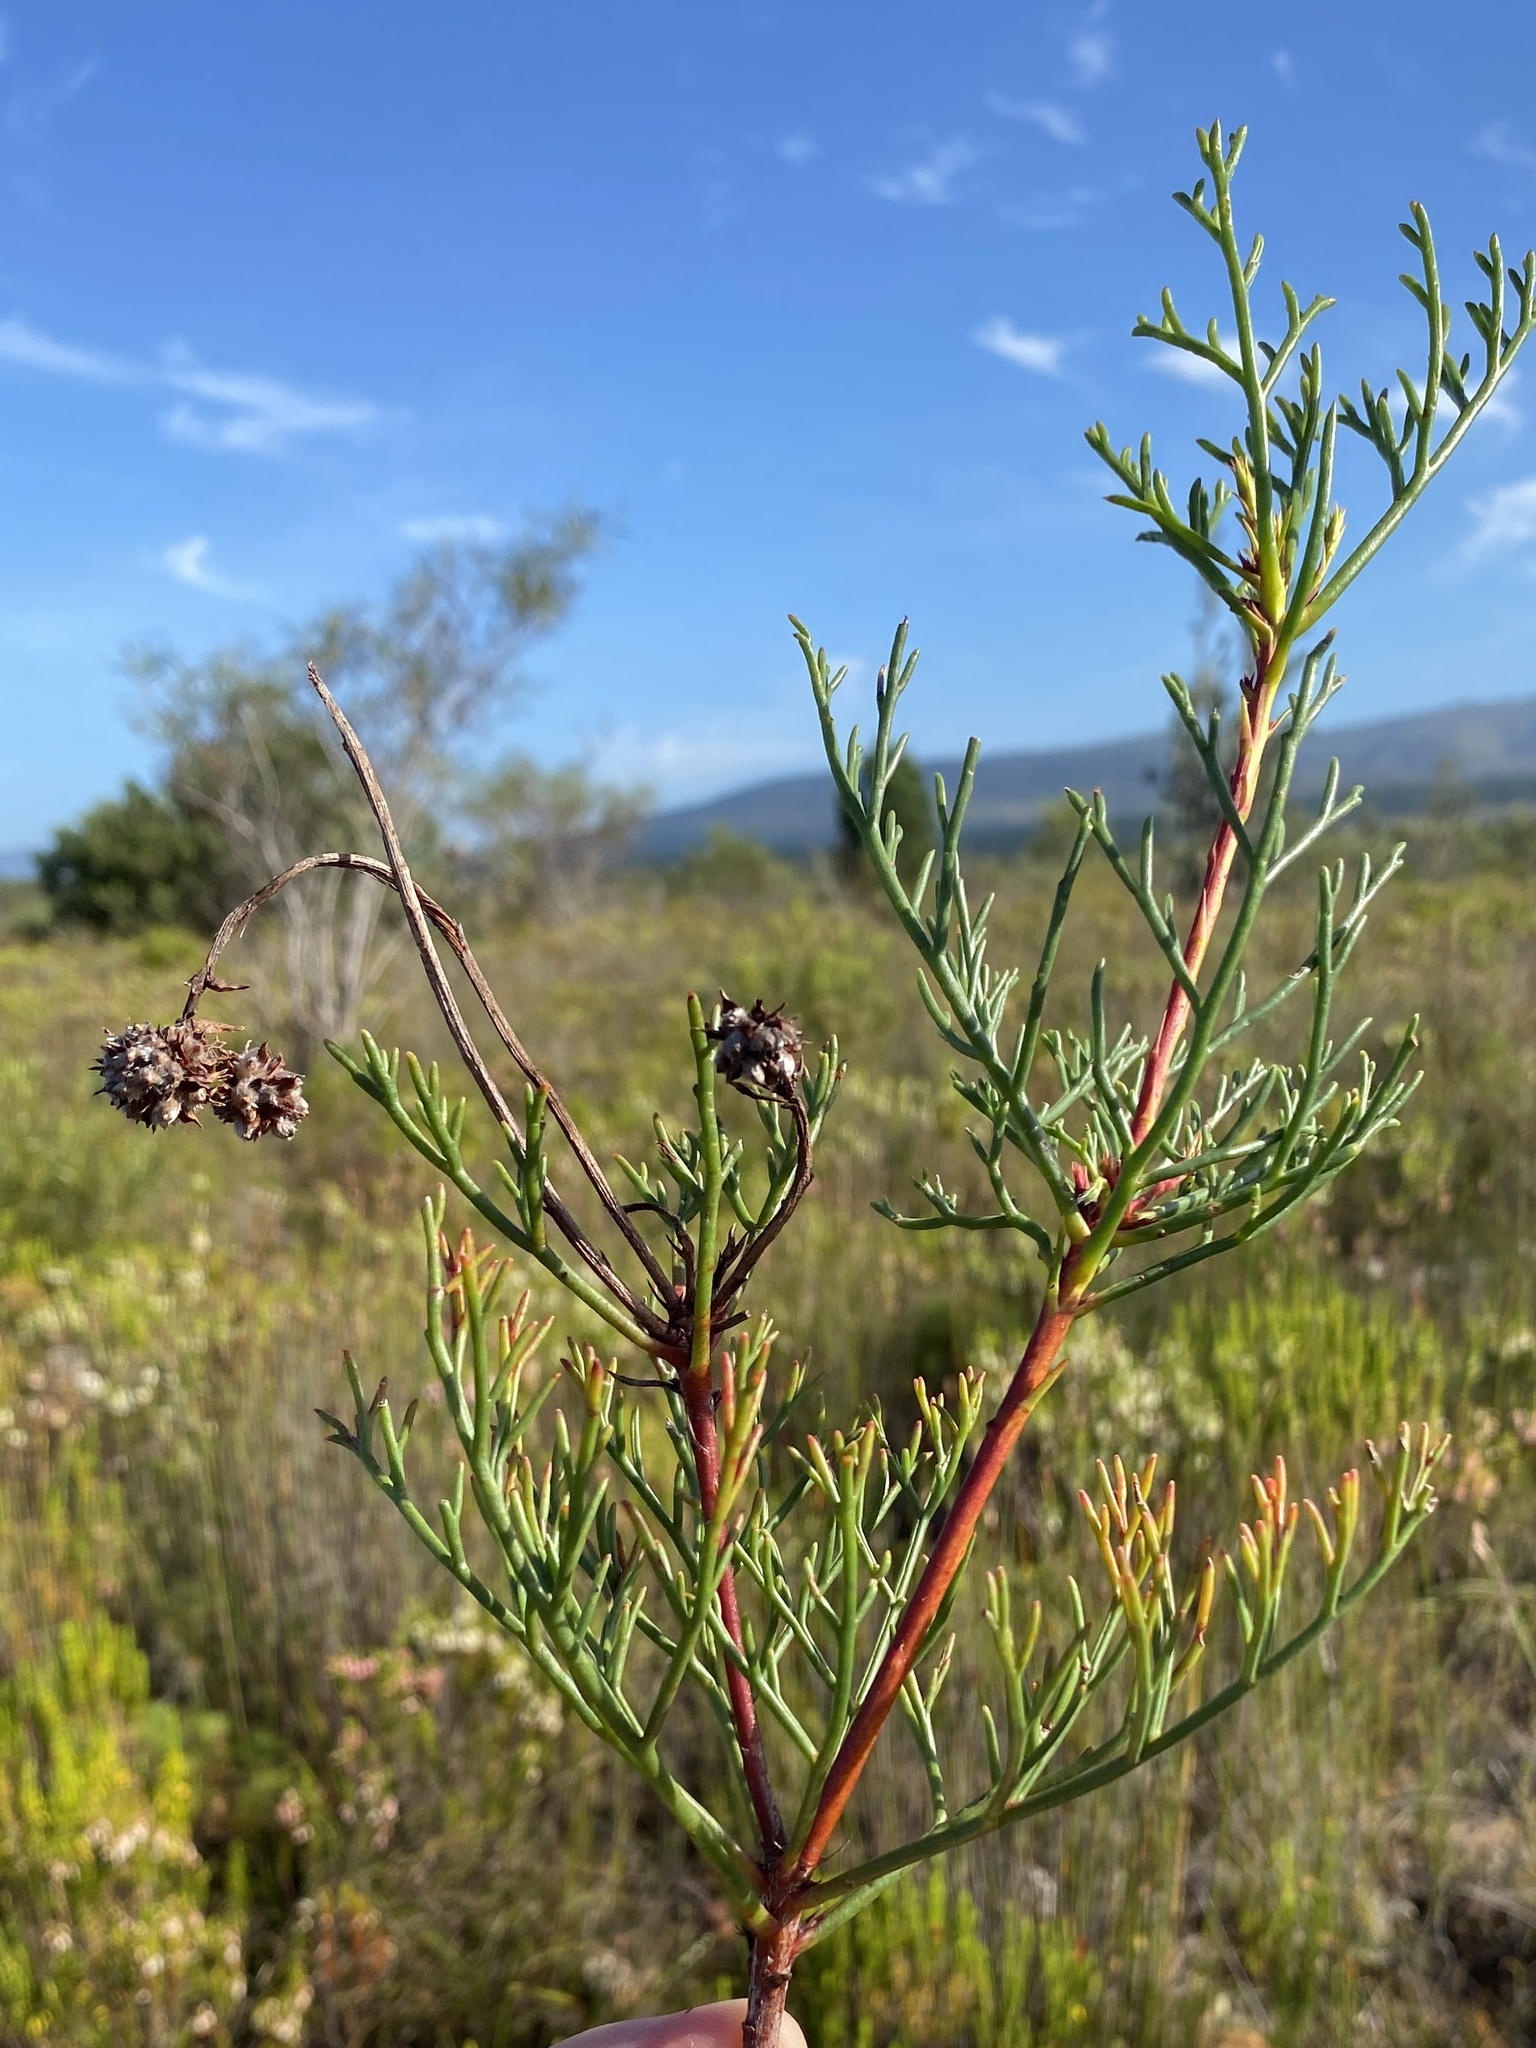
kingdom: Plantae
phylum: Tracheophyta
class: Magnoliopsida
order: Proteales
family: Proteaceae
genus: Serruria
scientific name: Serruria elongata
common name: Long-stalk spiderhead
